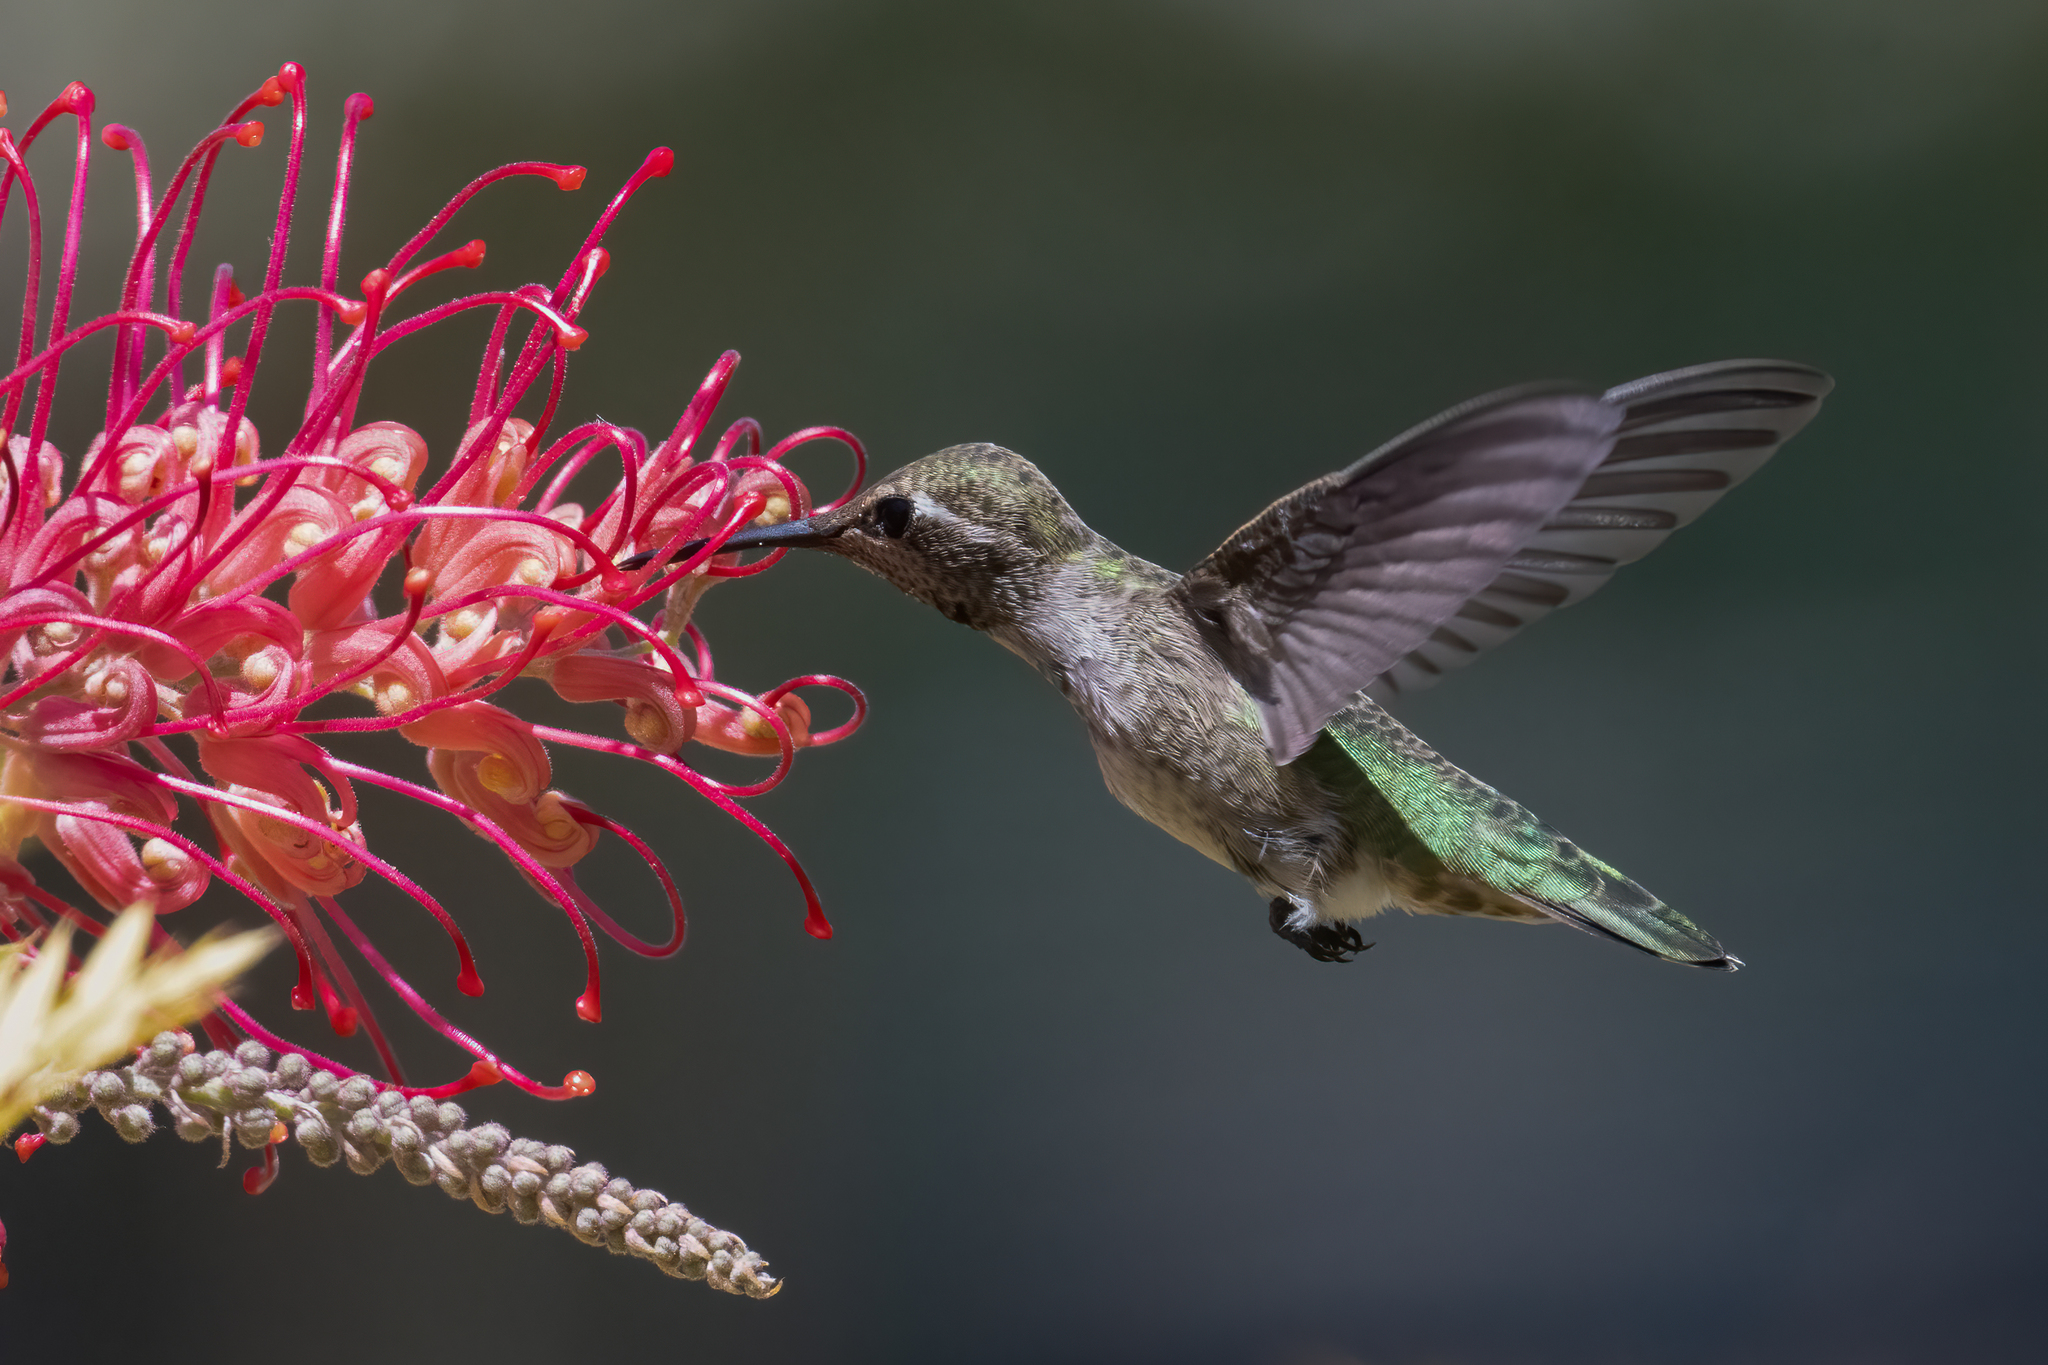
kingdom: Animalia
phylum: Chordata
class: Aves
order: Apodiformes
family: Trochilidae
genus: Calypte
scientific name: Calypte anna
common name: Anna's hummingbird
